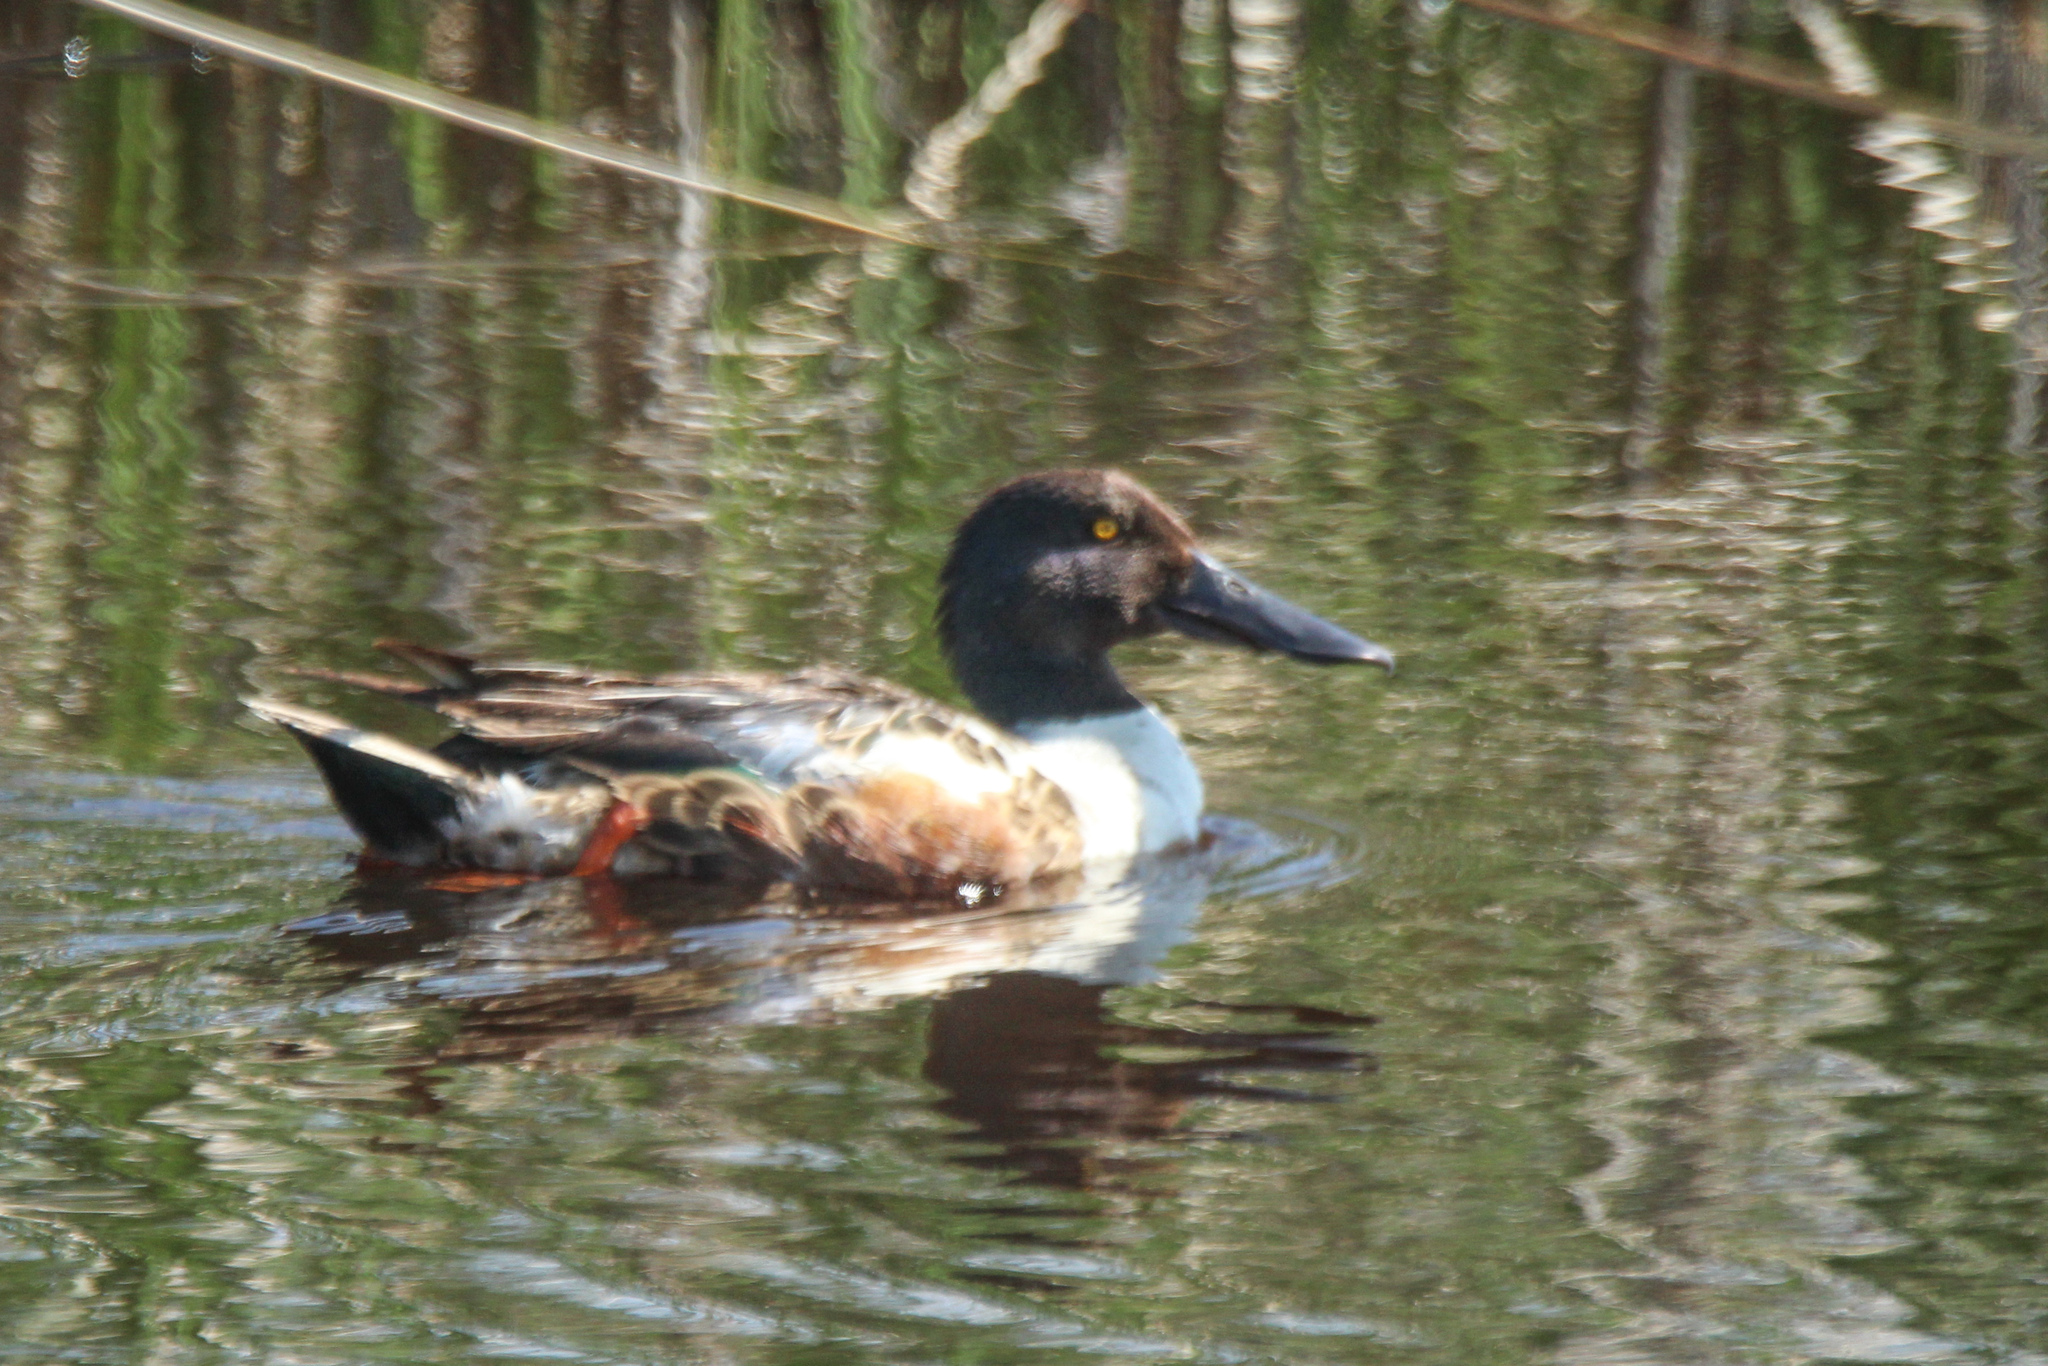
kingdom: Animalia
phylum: Chordata
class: Aves
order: Anseriformes
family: Anatidae
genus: Spatula
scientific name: Spatula clypeata
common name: Northern shoveler
